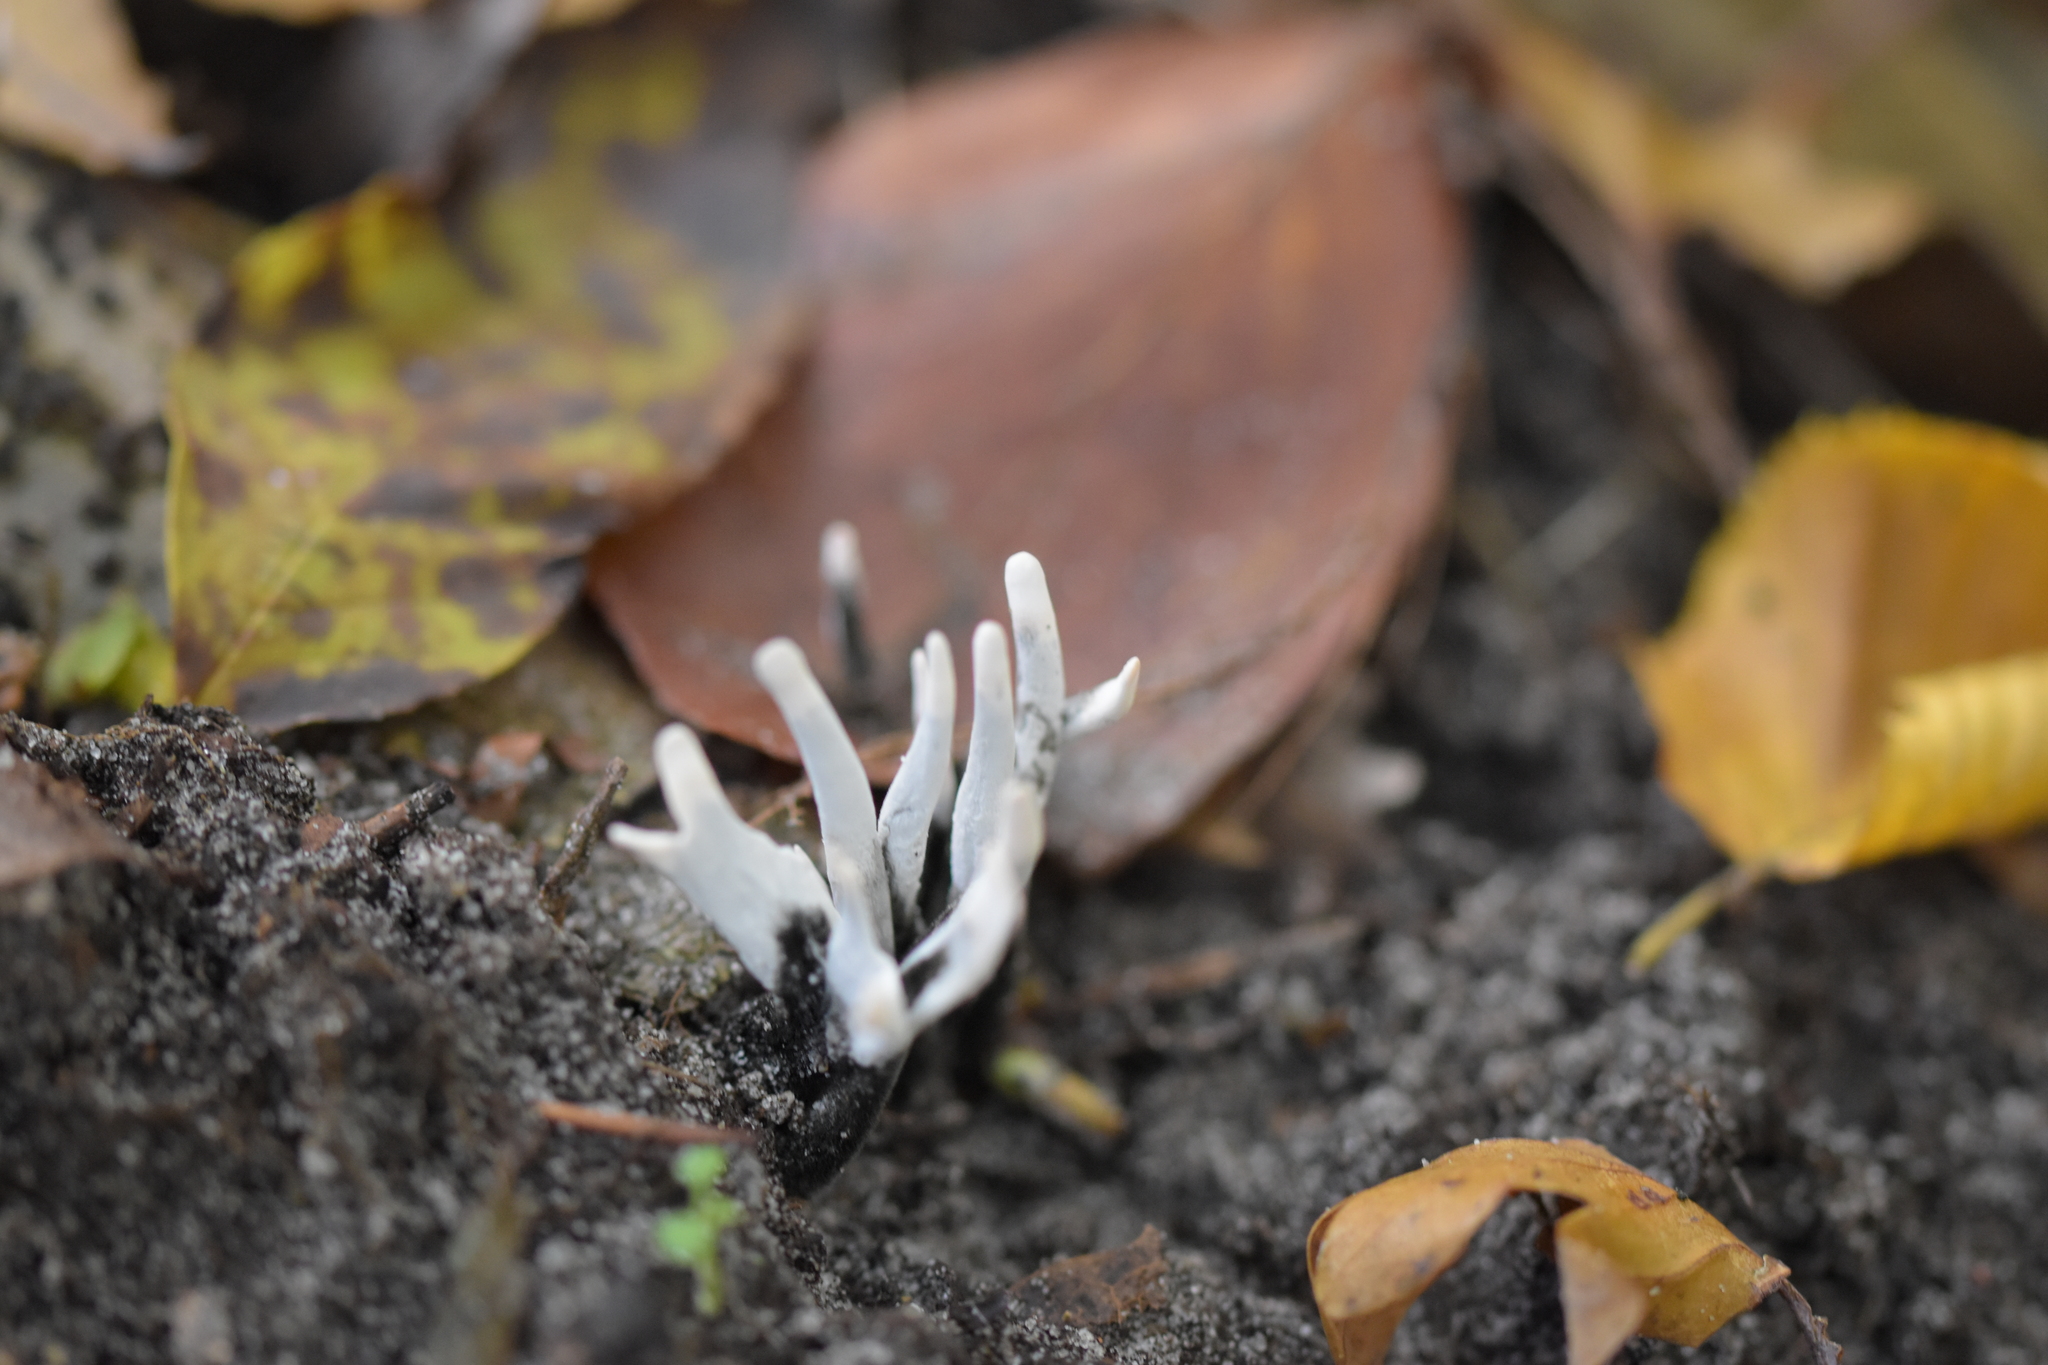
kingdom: Fungi
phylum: Ascomycota
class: Sordariomycetes
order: Xylariales
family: Xylariaceae
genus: Xylaria
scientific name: Xylaria hypoxylon
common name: Candle-snuff fungus
